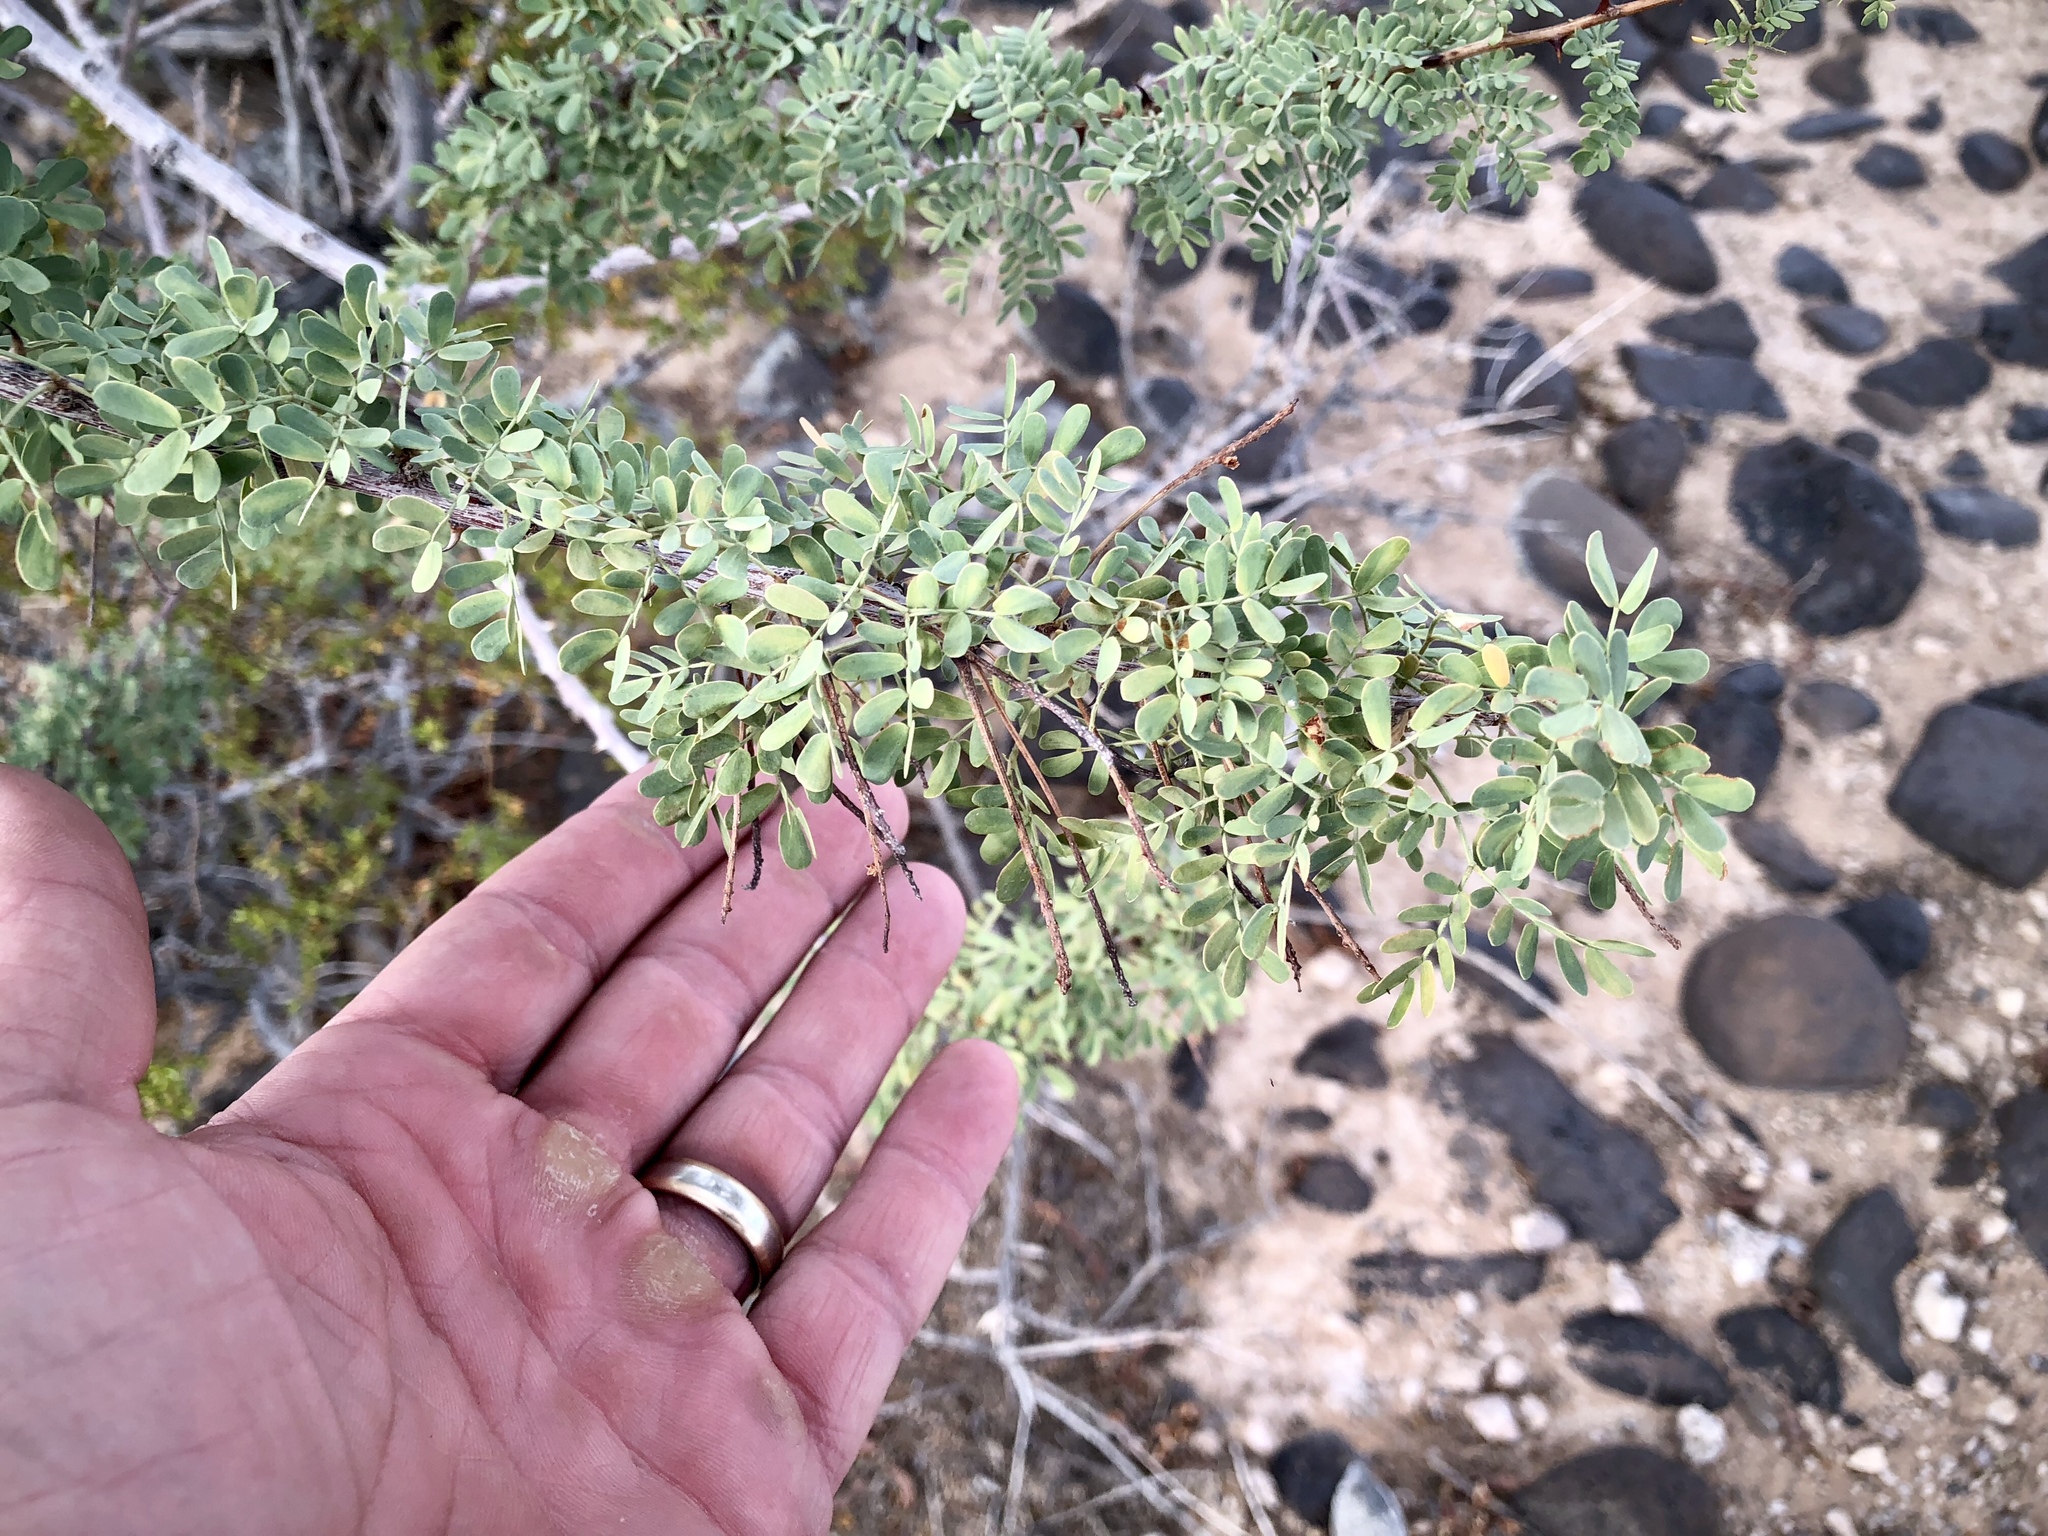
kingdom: Plantae
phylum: Tracheophyta
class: Magnoliopsida
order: Fabales
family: Fabaceae
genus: Senegalia
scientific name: Senegalia greggii
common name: Texas-mimosa
